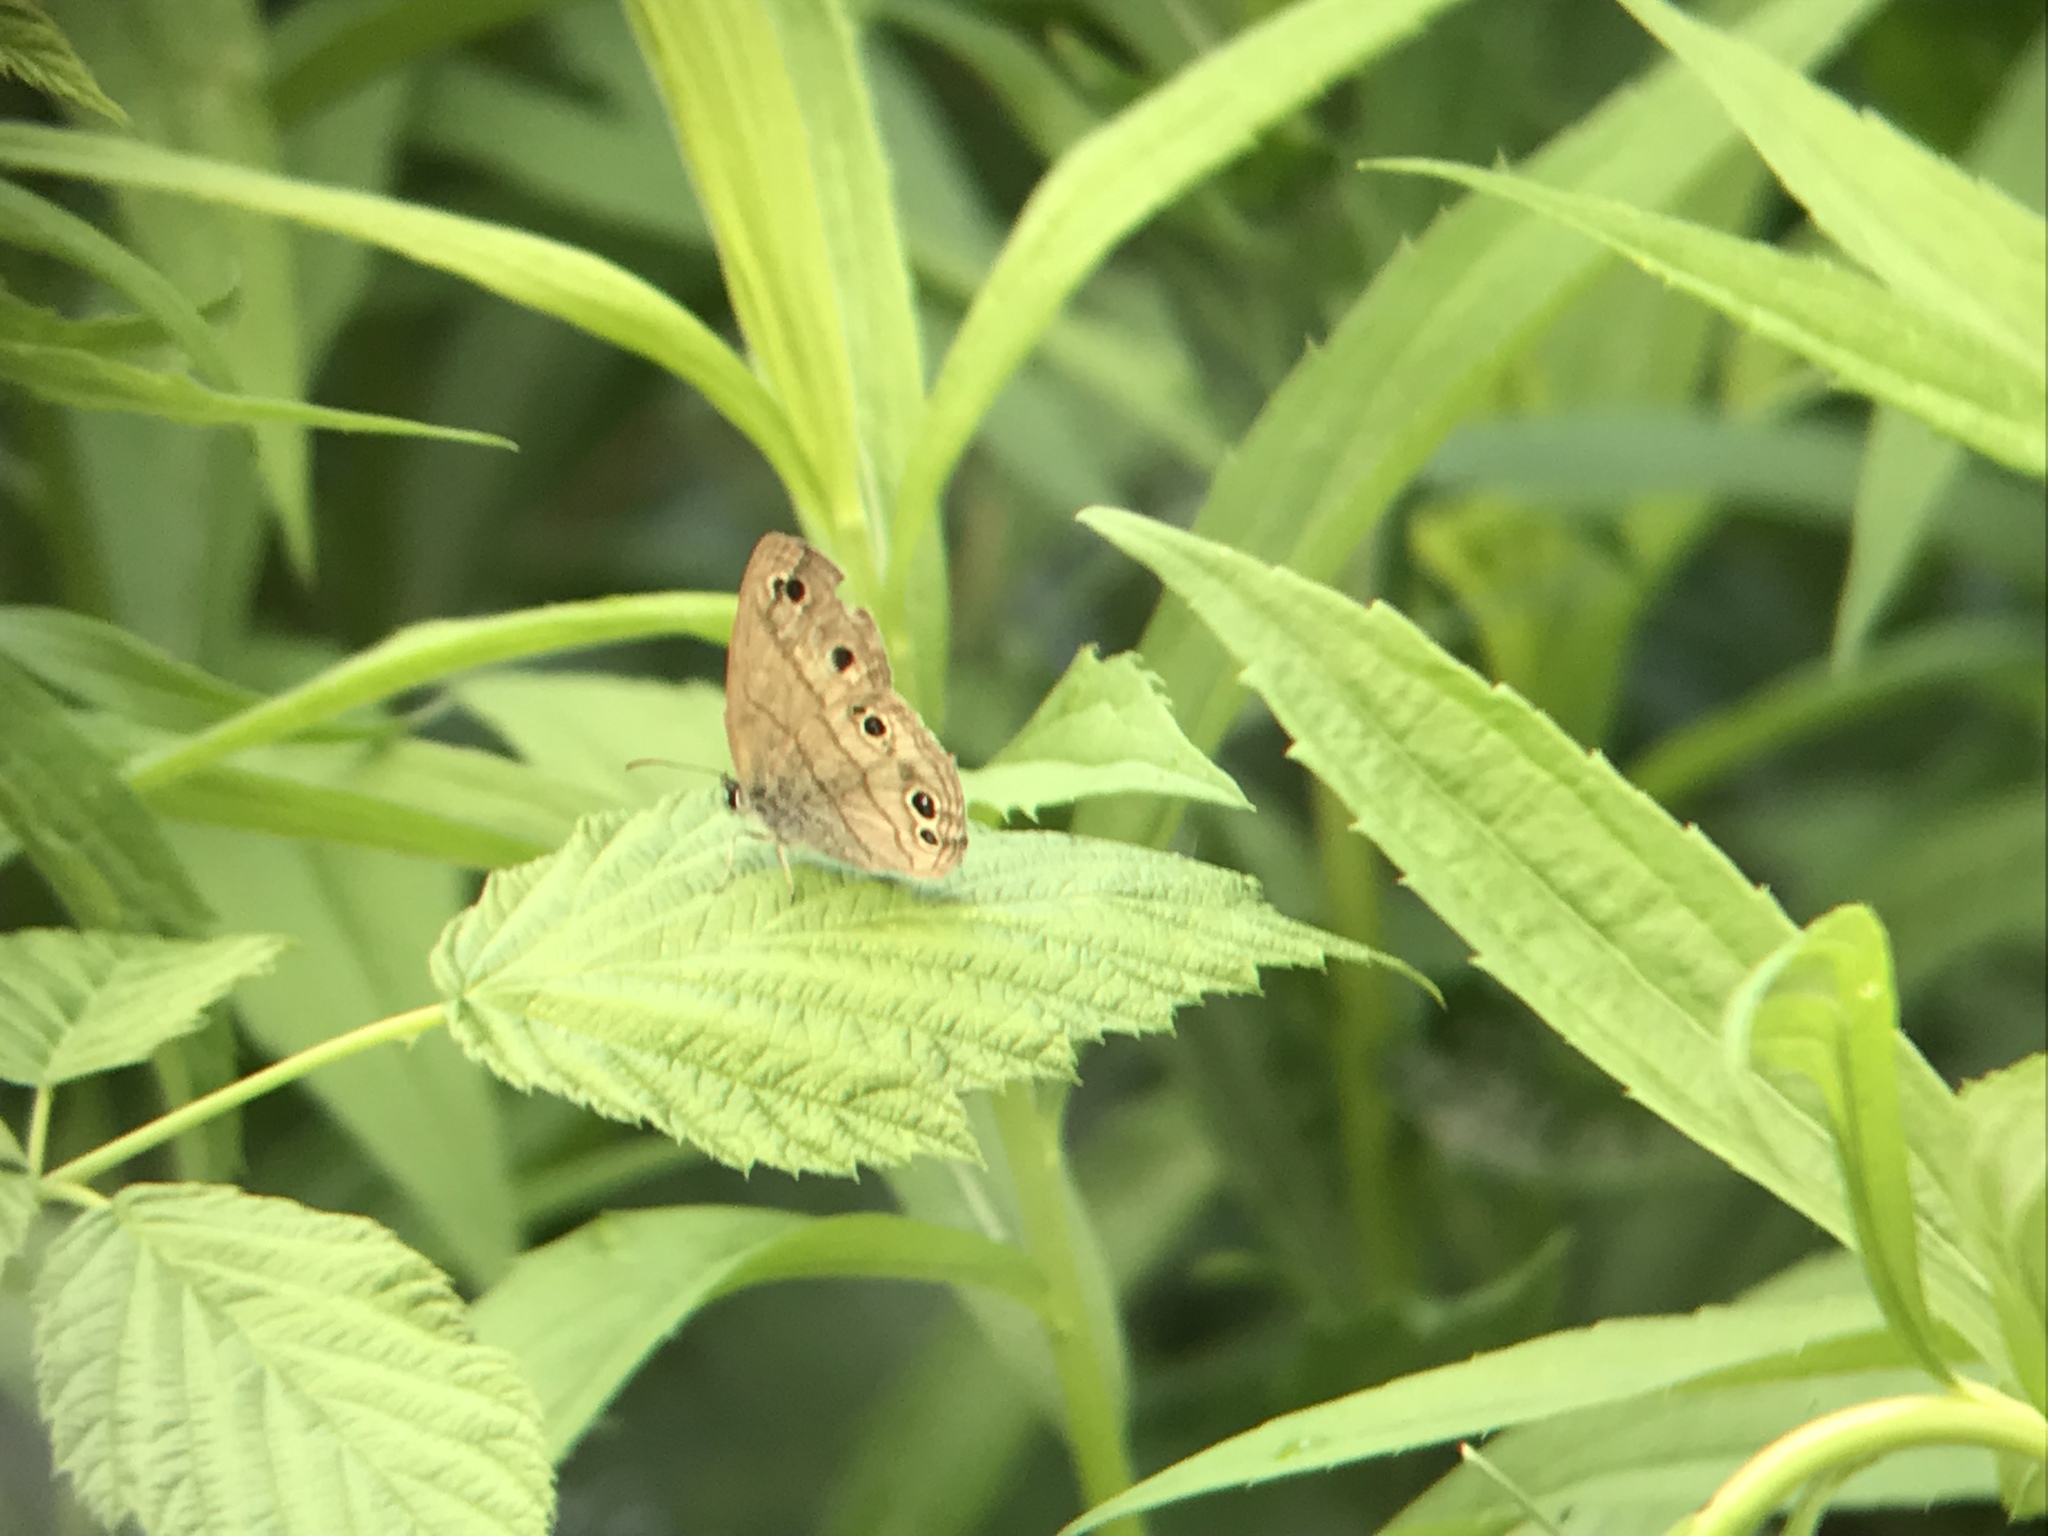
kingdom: Animalia
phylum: Arthropoda
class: Insecta
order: Lepidoptera
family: Nymphalidae
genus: Euptychia
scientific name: Euptychia cymela
